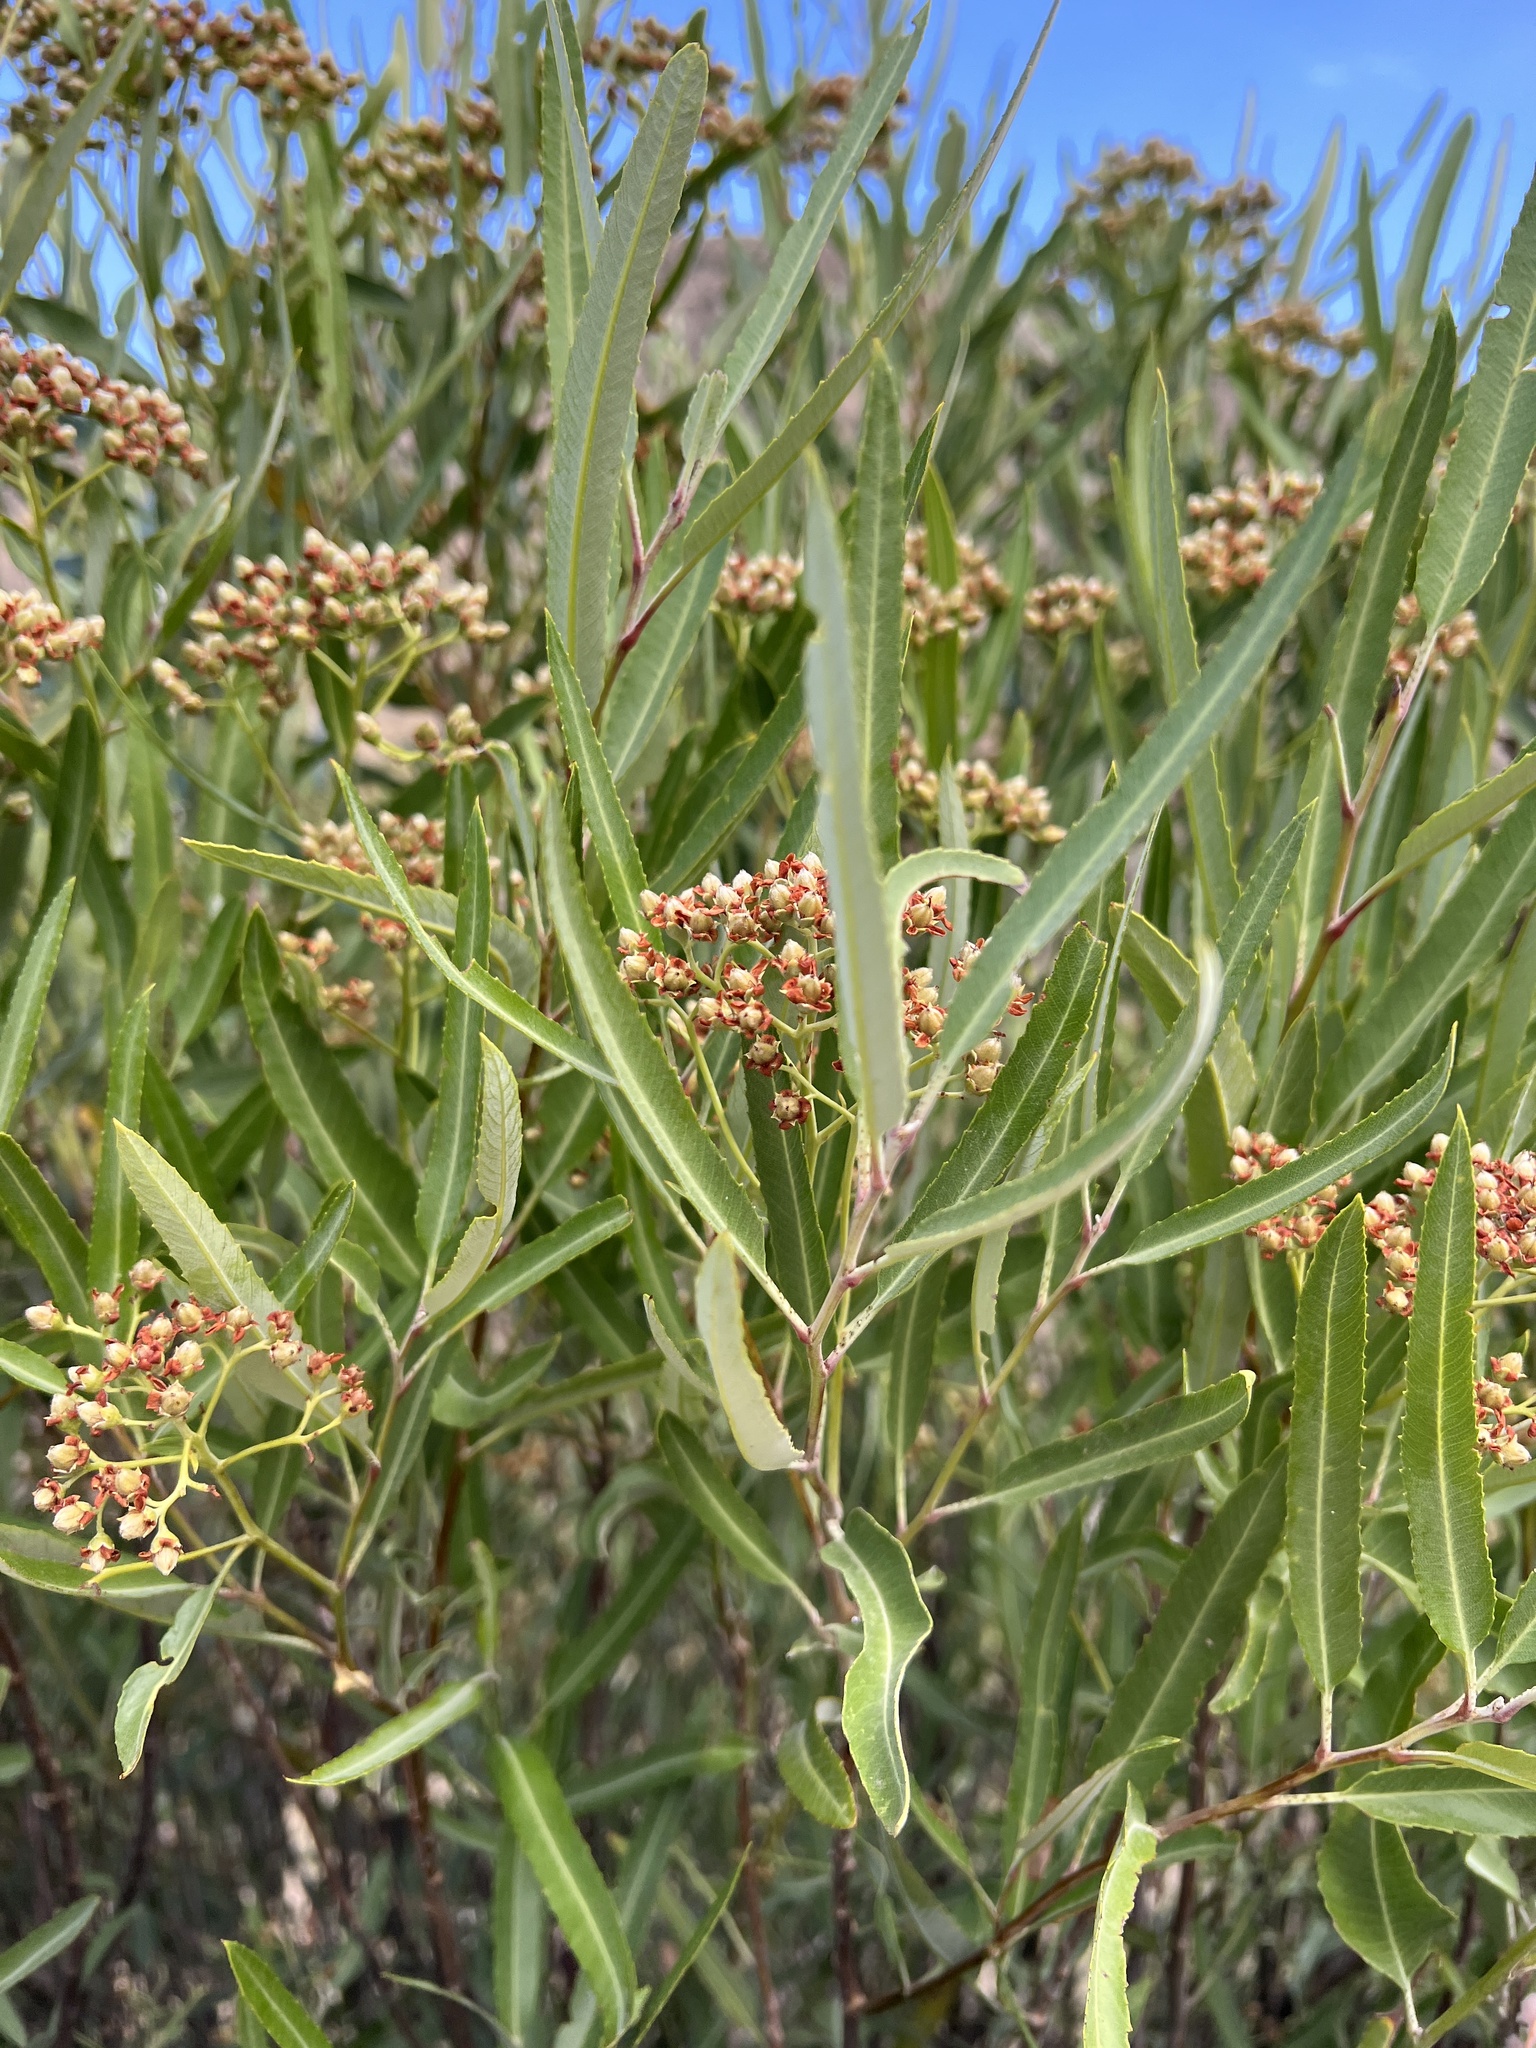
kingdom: Plantae
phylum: Tracheophyta
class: Magnoliopsida
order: Rosales
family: Rosaceae
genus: Vauquelinia
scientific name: Vauquelinia californica
